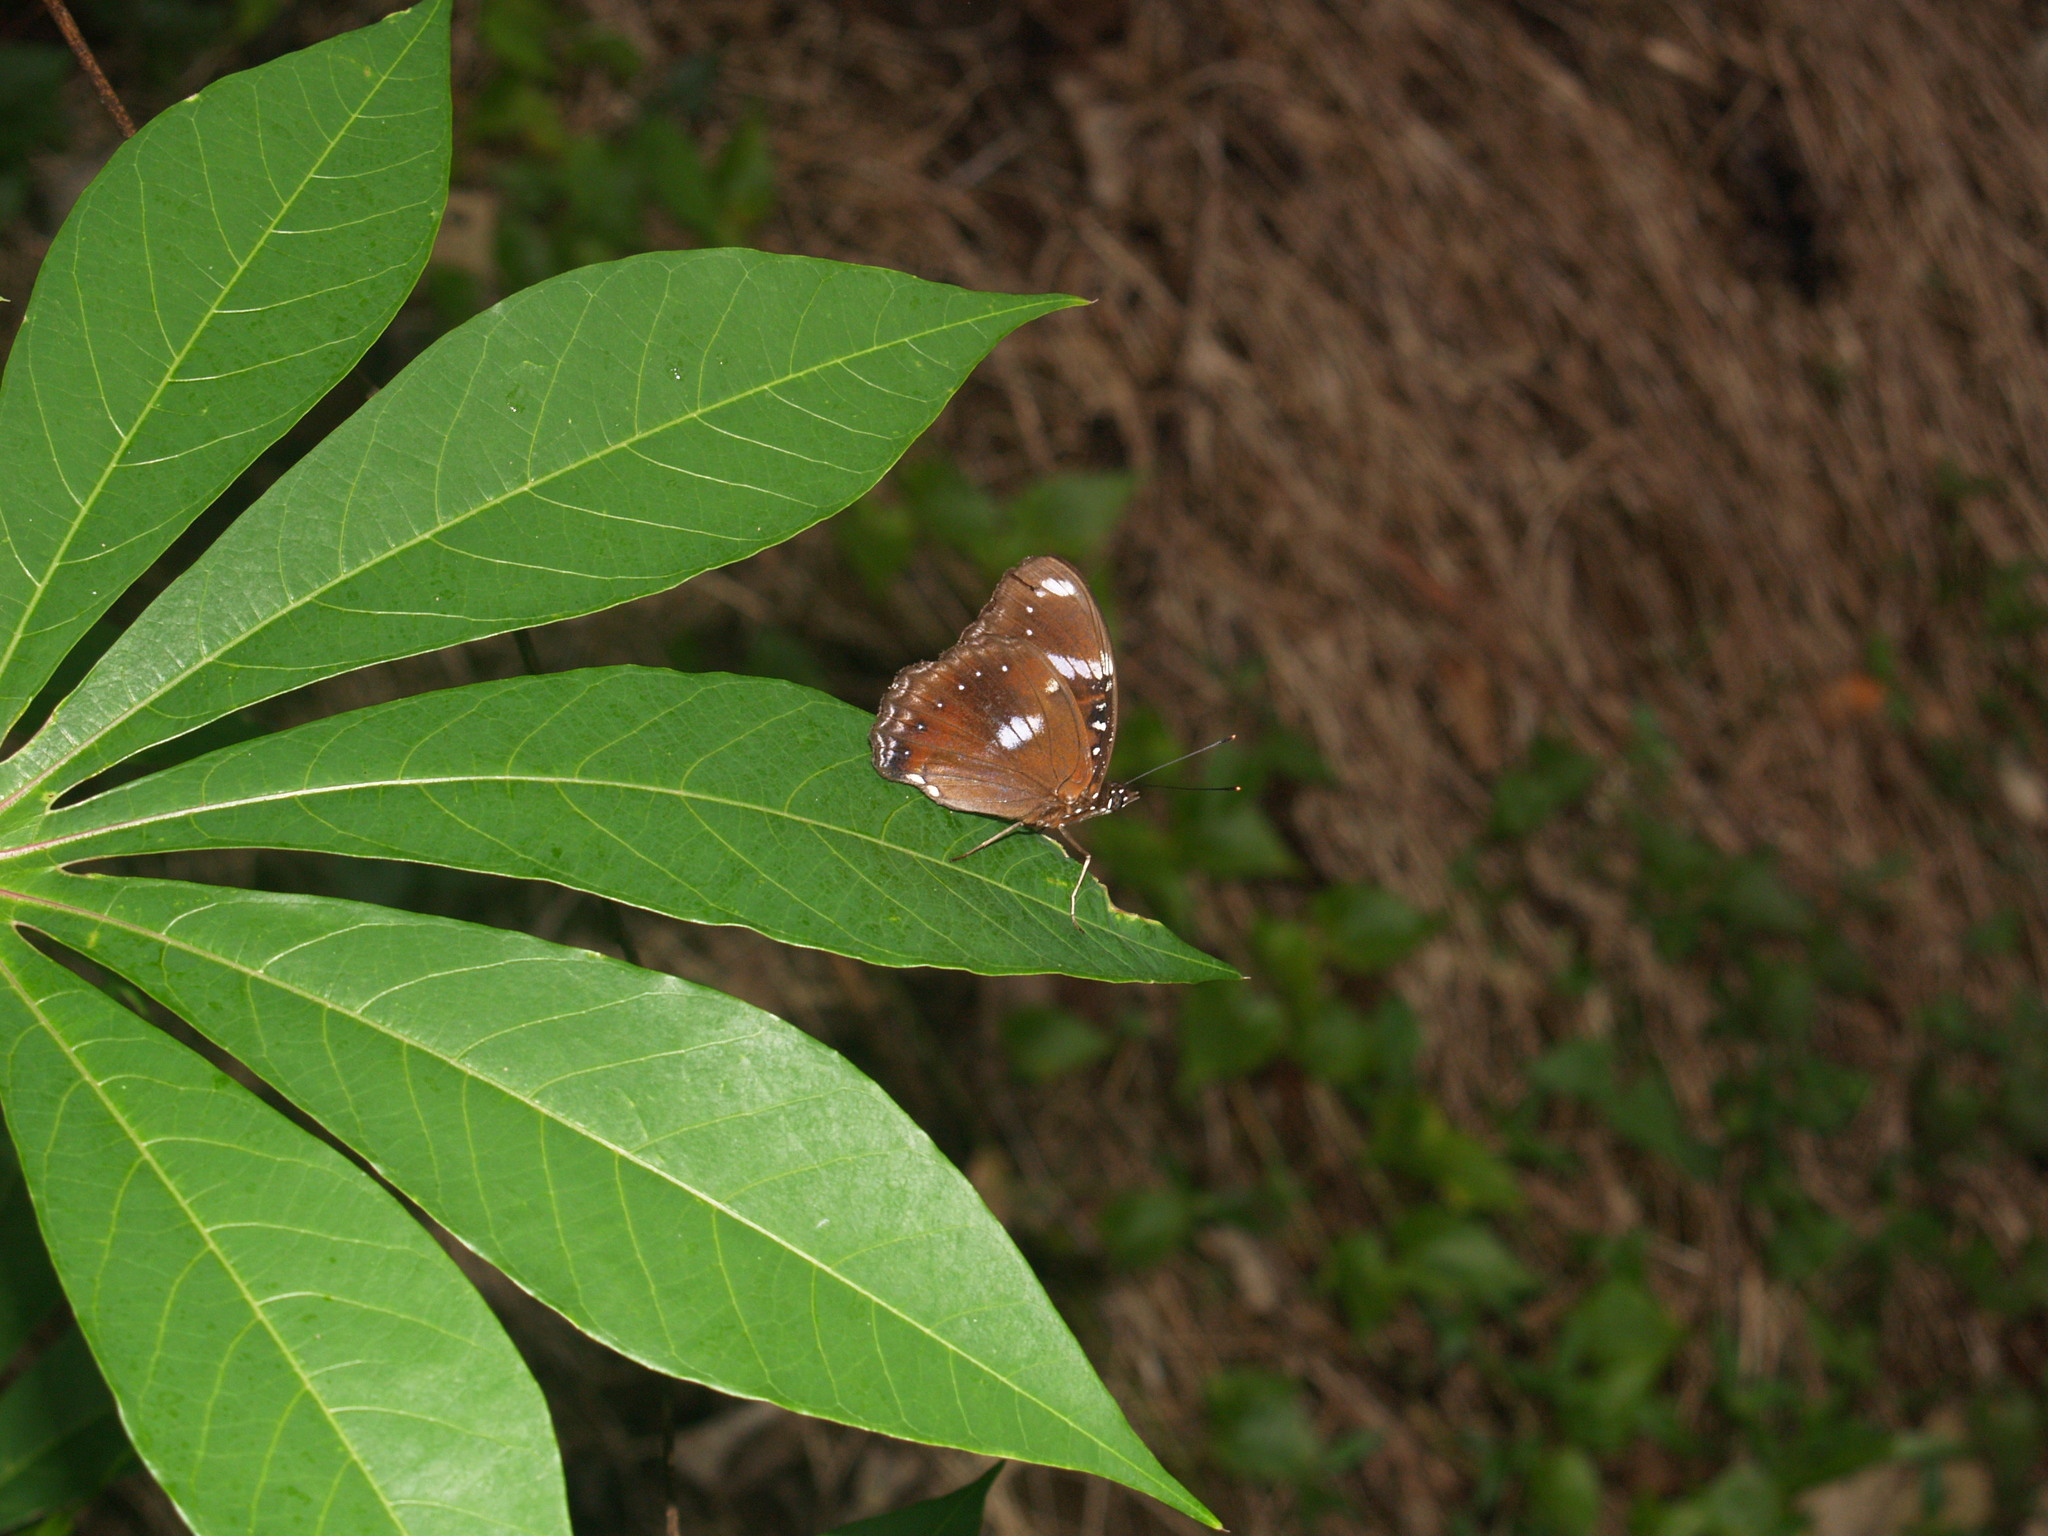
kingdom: Animalia
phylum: Arthropoda
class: Insecta
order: Lepidoptera
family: Nymphalidae
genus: Hypolimnas
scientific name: Hypolimnas bolina
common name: Great eggfly
